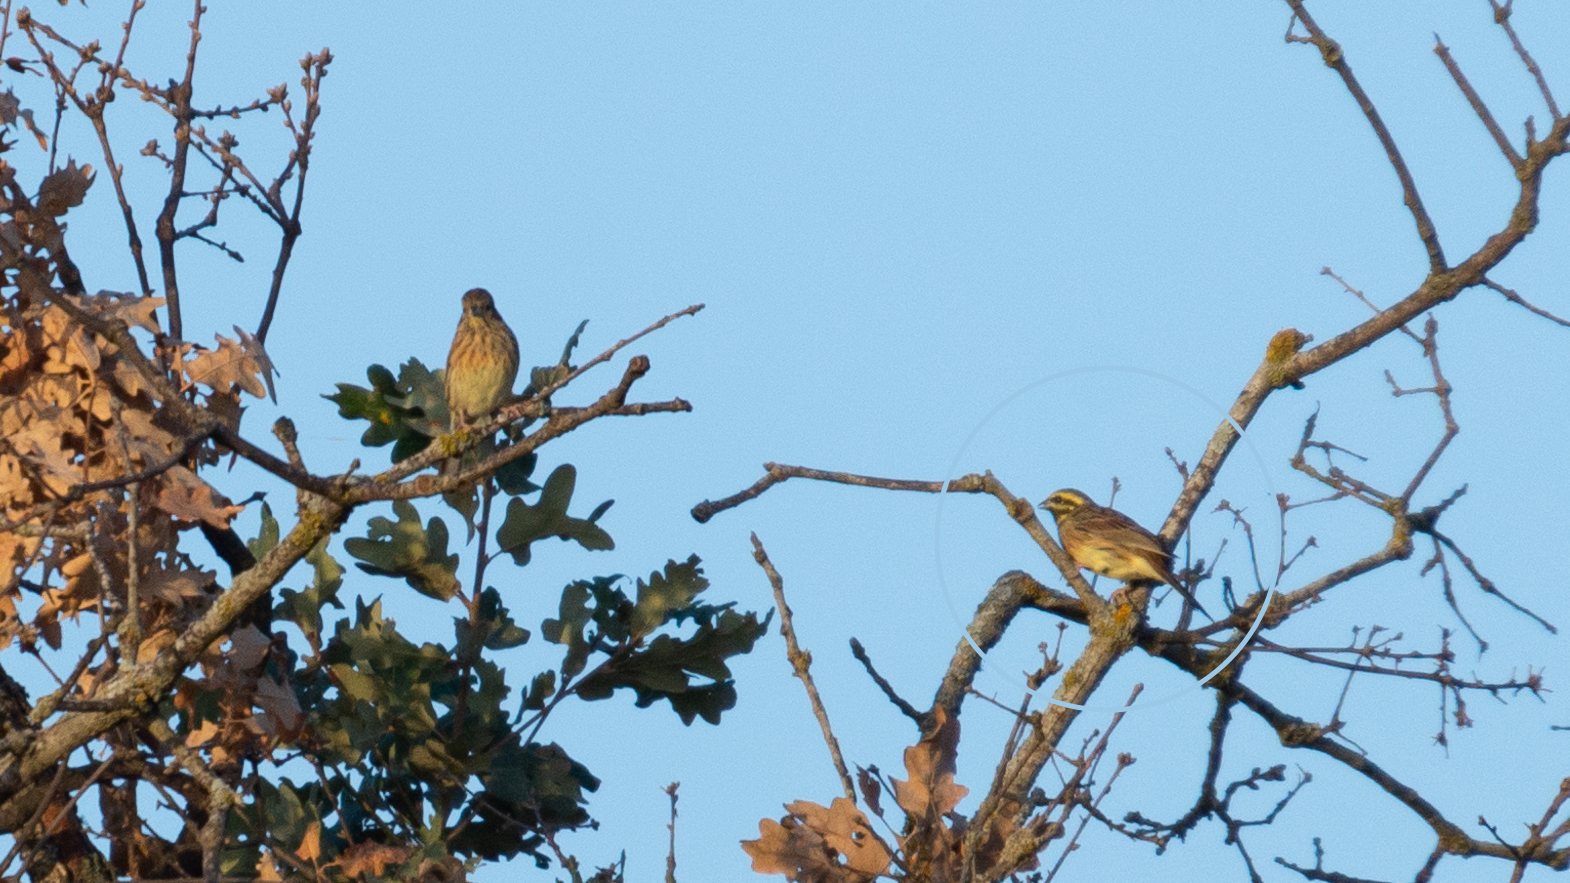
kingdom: Animalia
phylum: Chordata
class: Aves
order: Passeriformes
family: Emberizidae
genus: Emberiza
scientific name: Emberiza cirlus
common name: Cirl bunting
